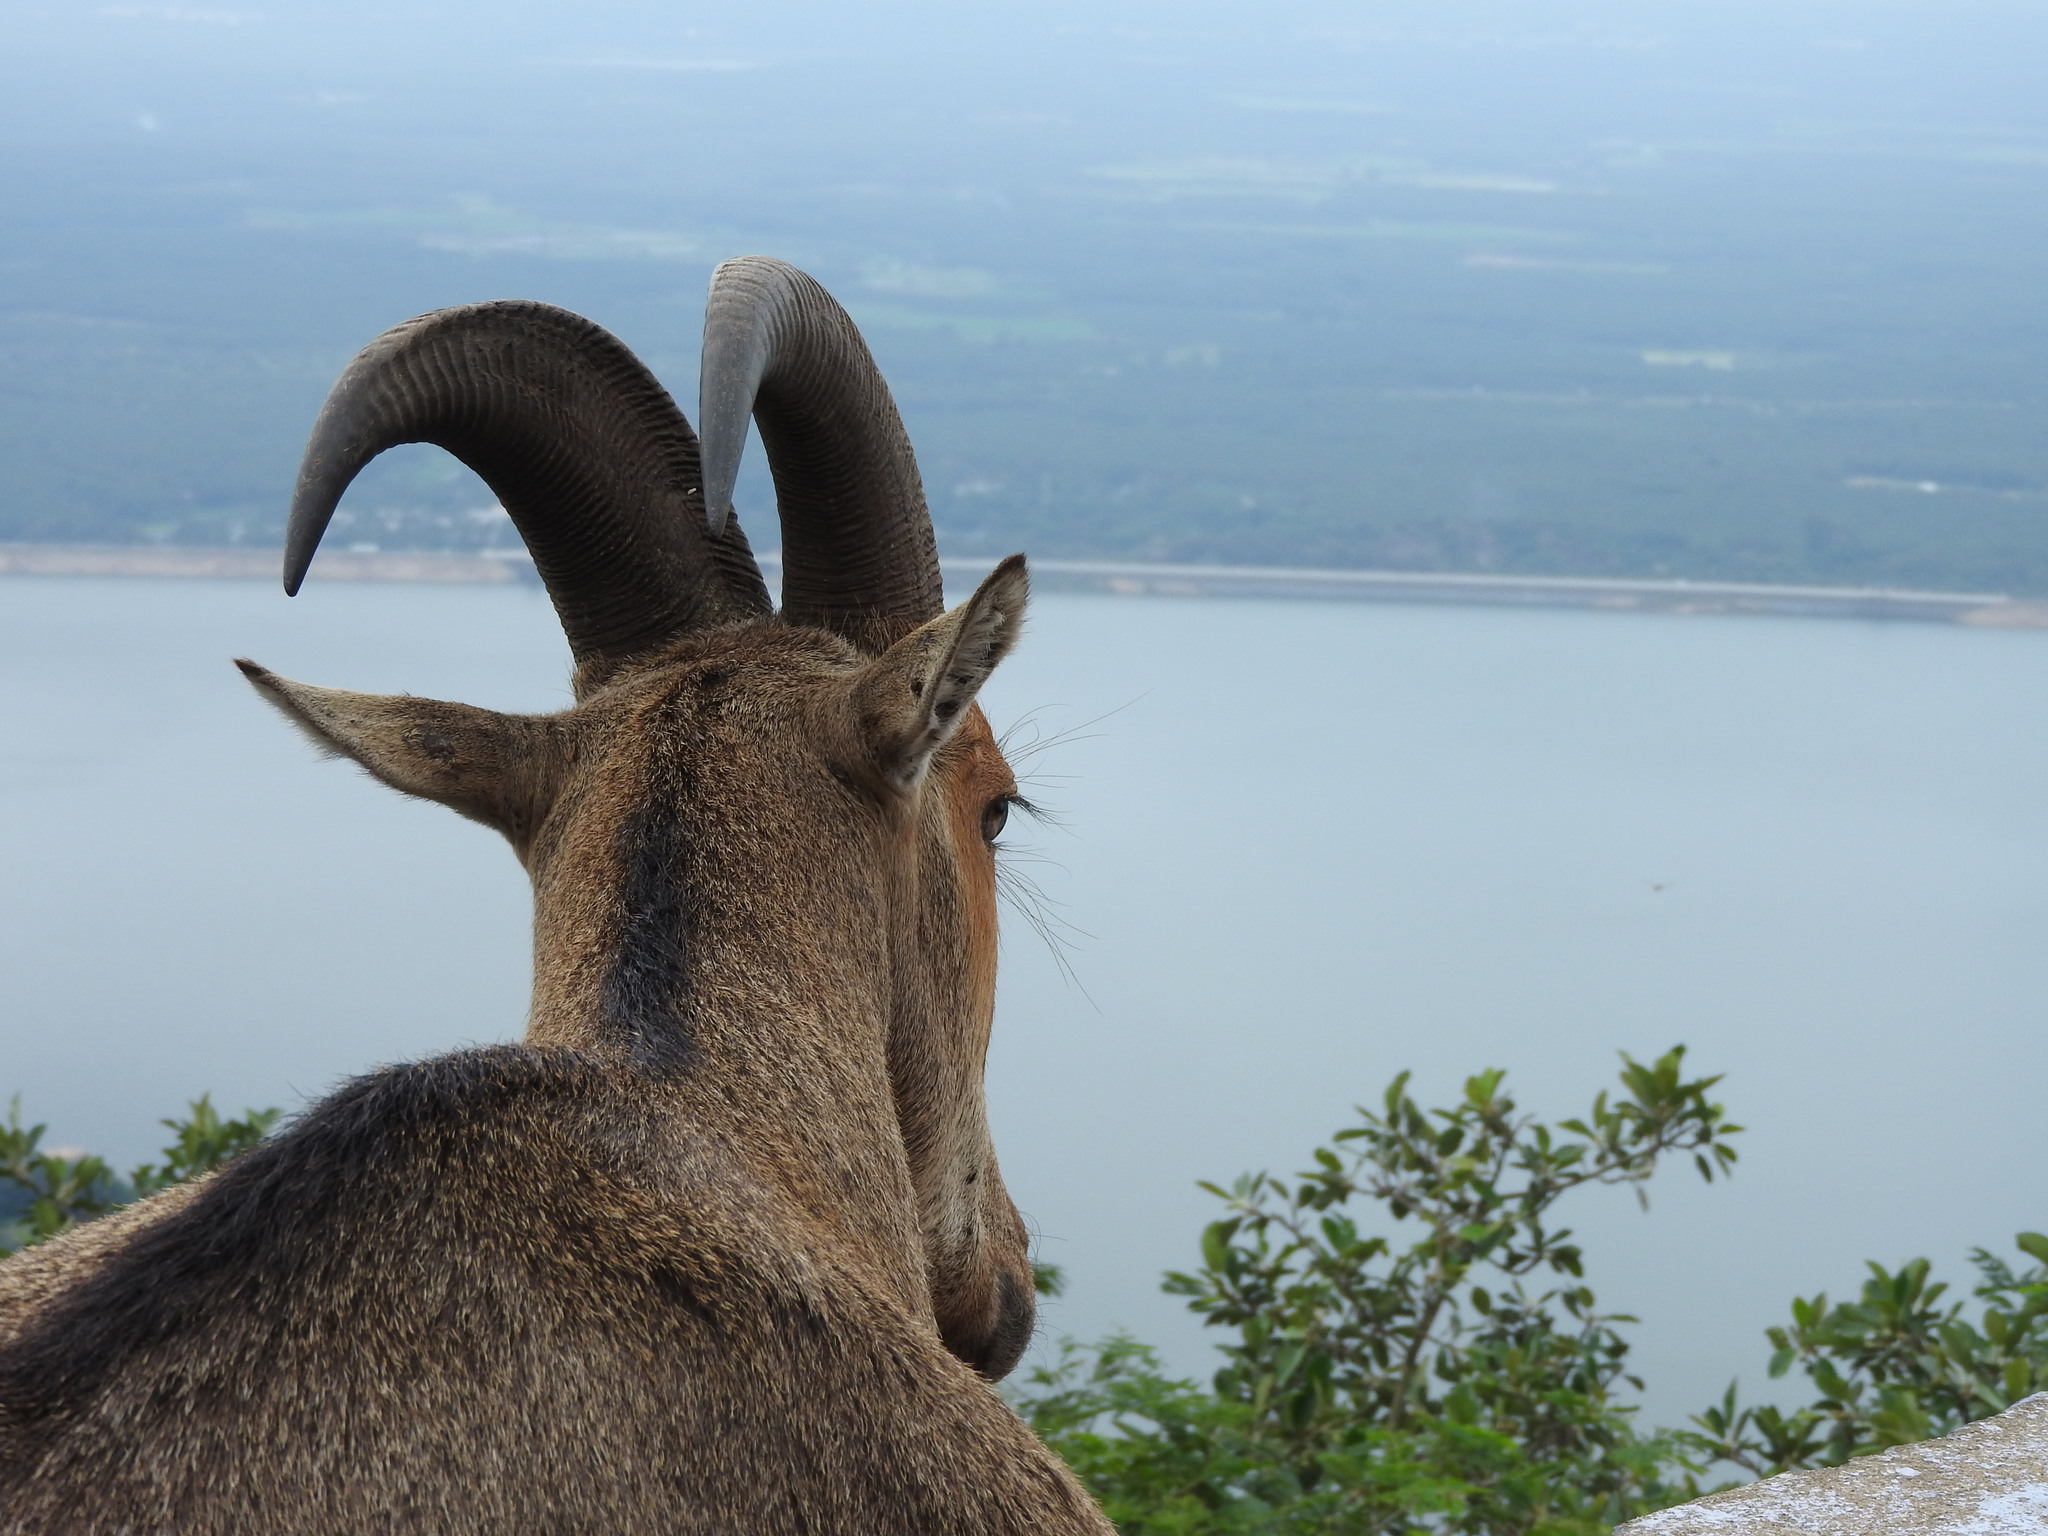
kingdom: Animalia
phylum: Chordata
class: Mammalia
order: Artiodactyla
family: Bovidae
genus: Hemitragus
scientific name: Hemitragus hylocrius
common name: Nilgiri tahr
